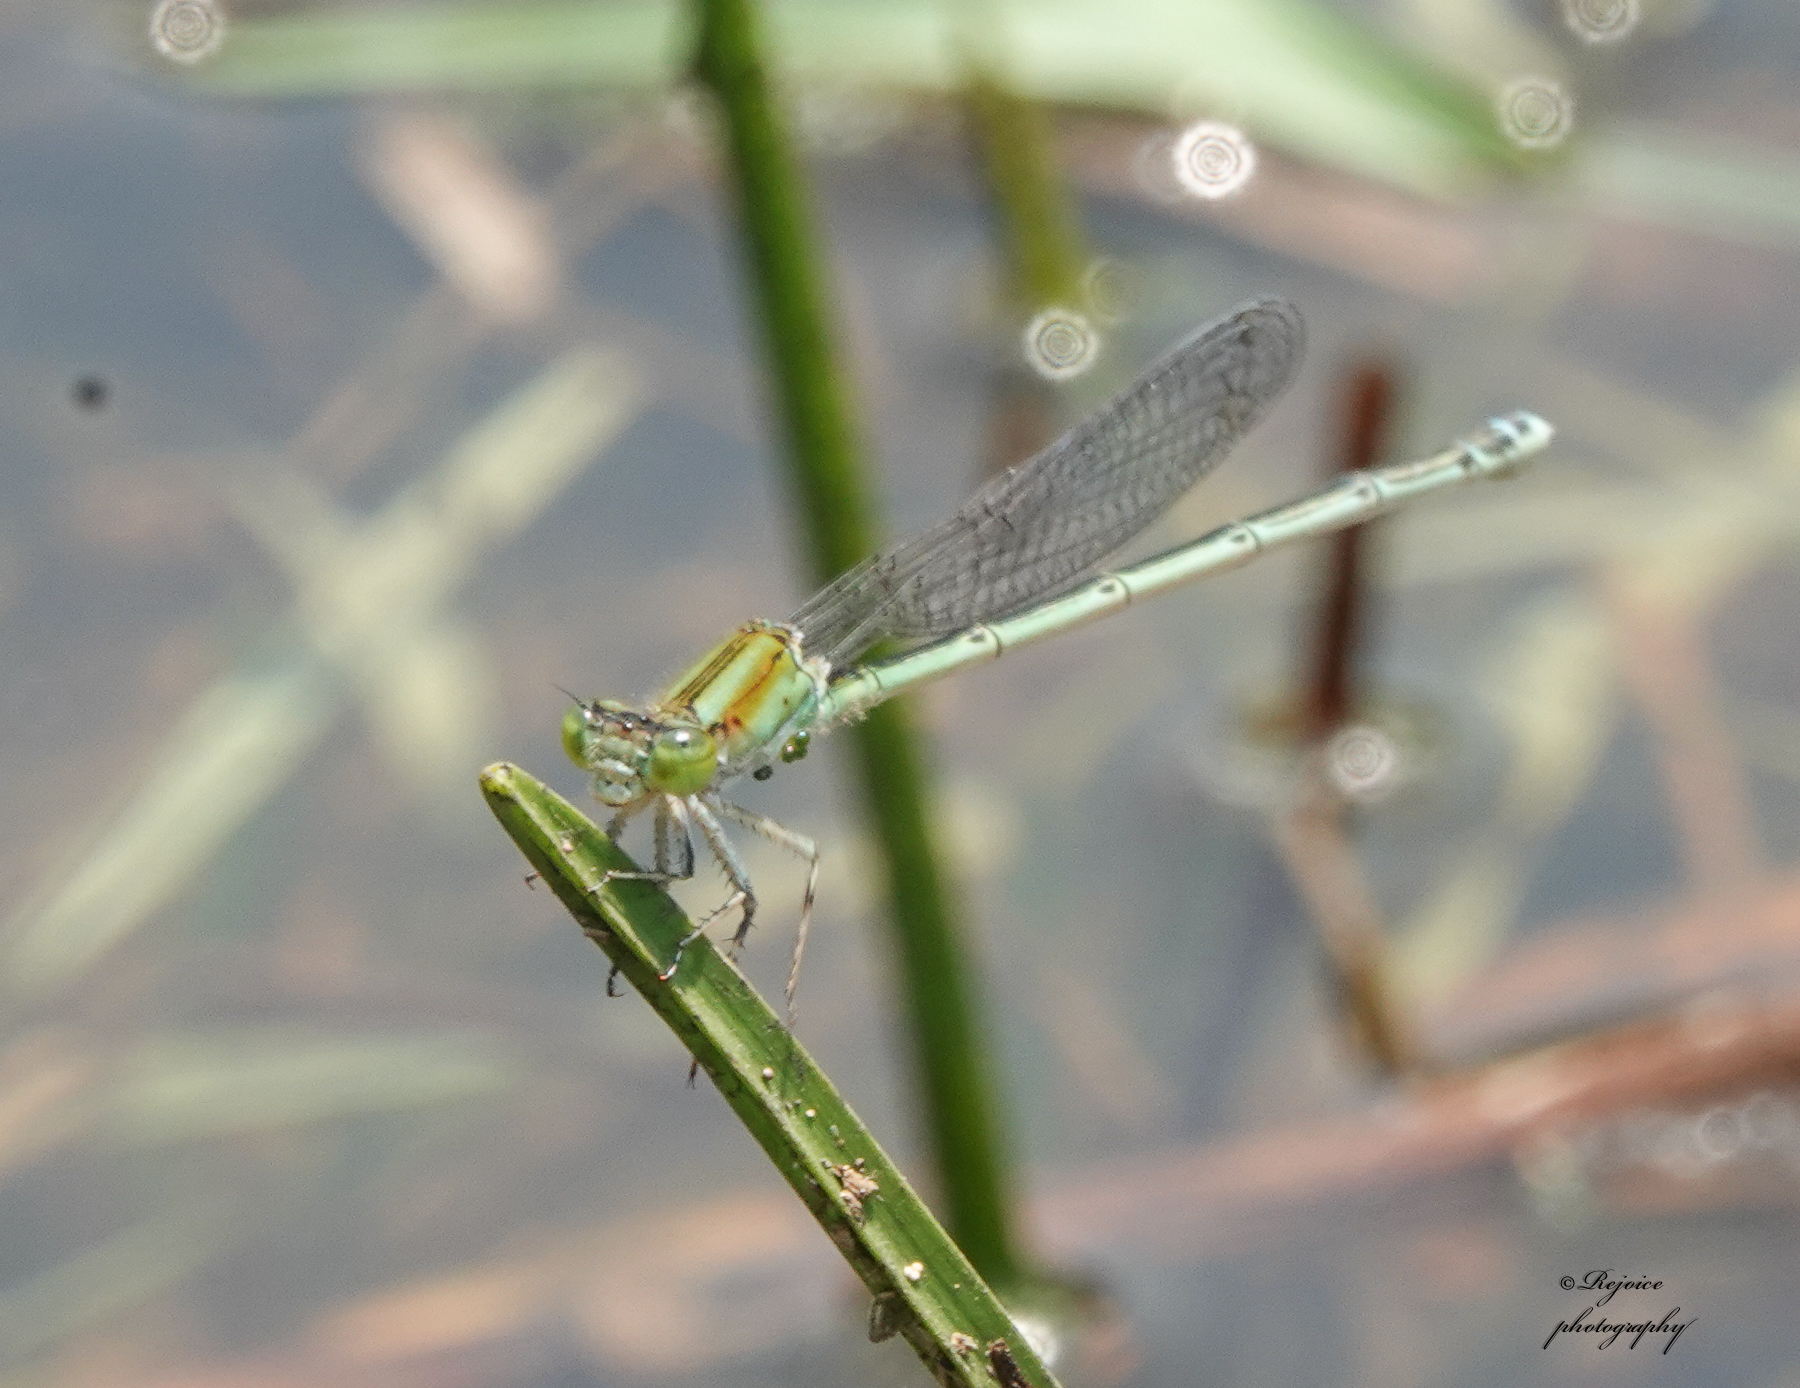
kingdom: Animalia
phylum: Arthropoda
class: Insecta
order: Odonata
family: Coenagrionidae
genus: Pseudagrion
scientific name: Pseudagrion microcephalum
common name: Blue riverdamsel
